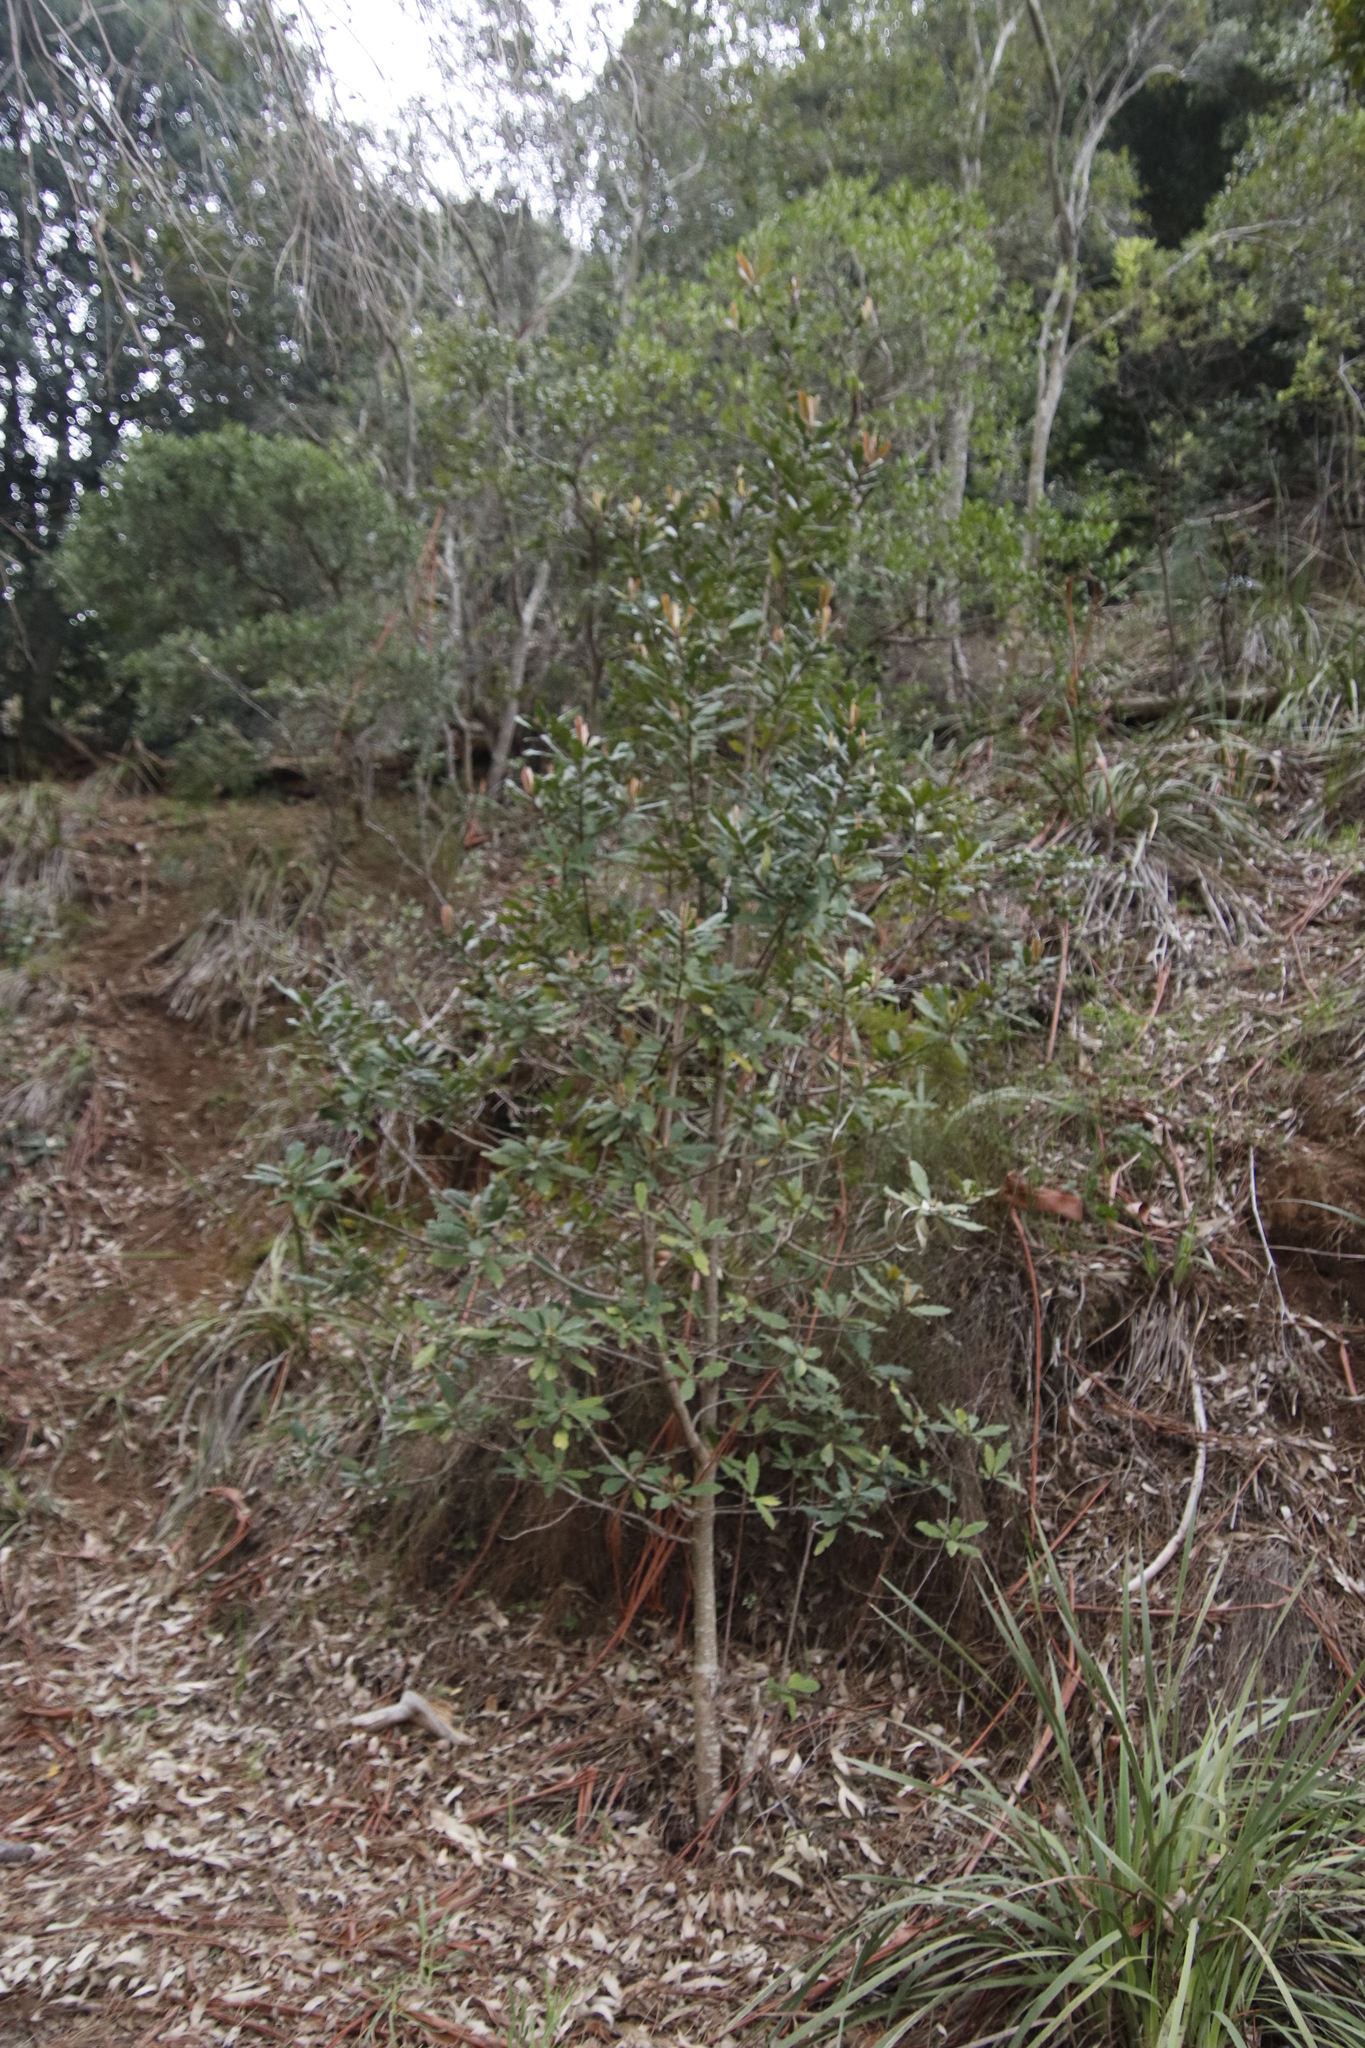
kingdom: Plantae
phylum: Tracheophyta
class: Magnoliopsida
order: Ericales
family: Primulaceae
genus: Myrsine
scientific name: Myrsine melanophloeos
